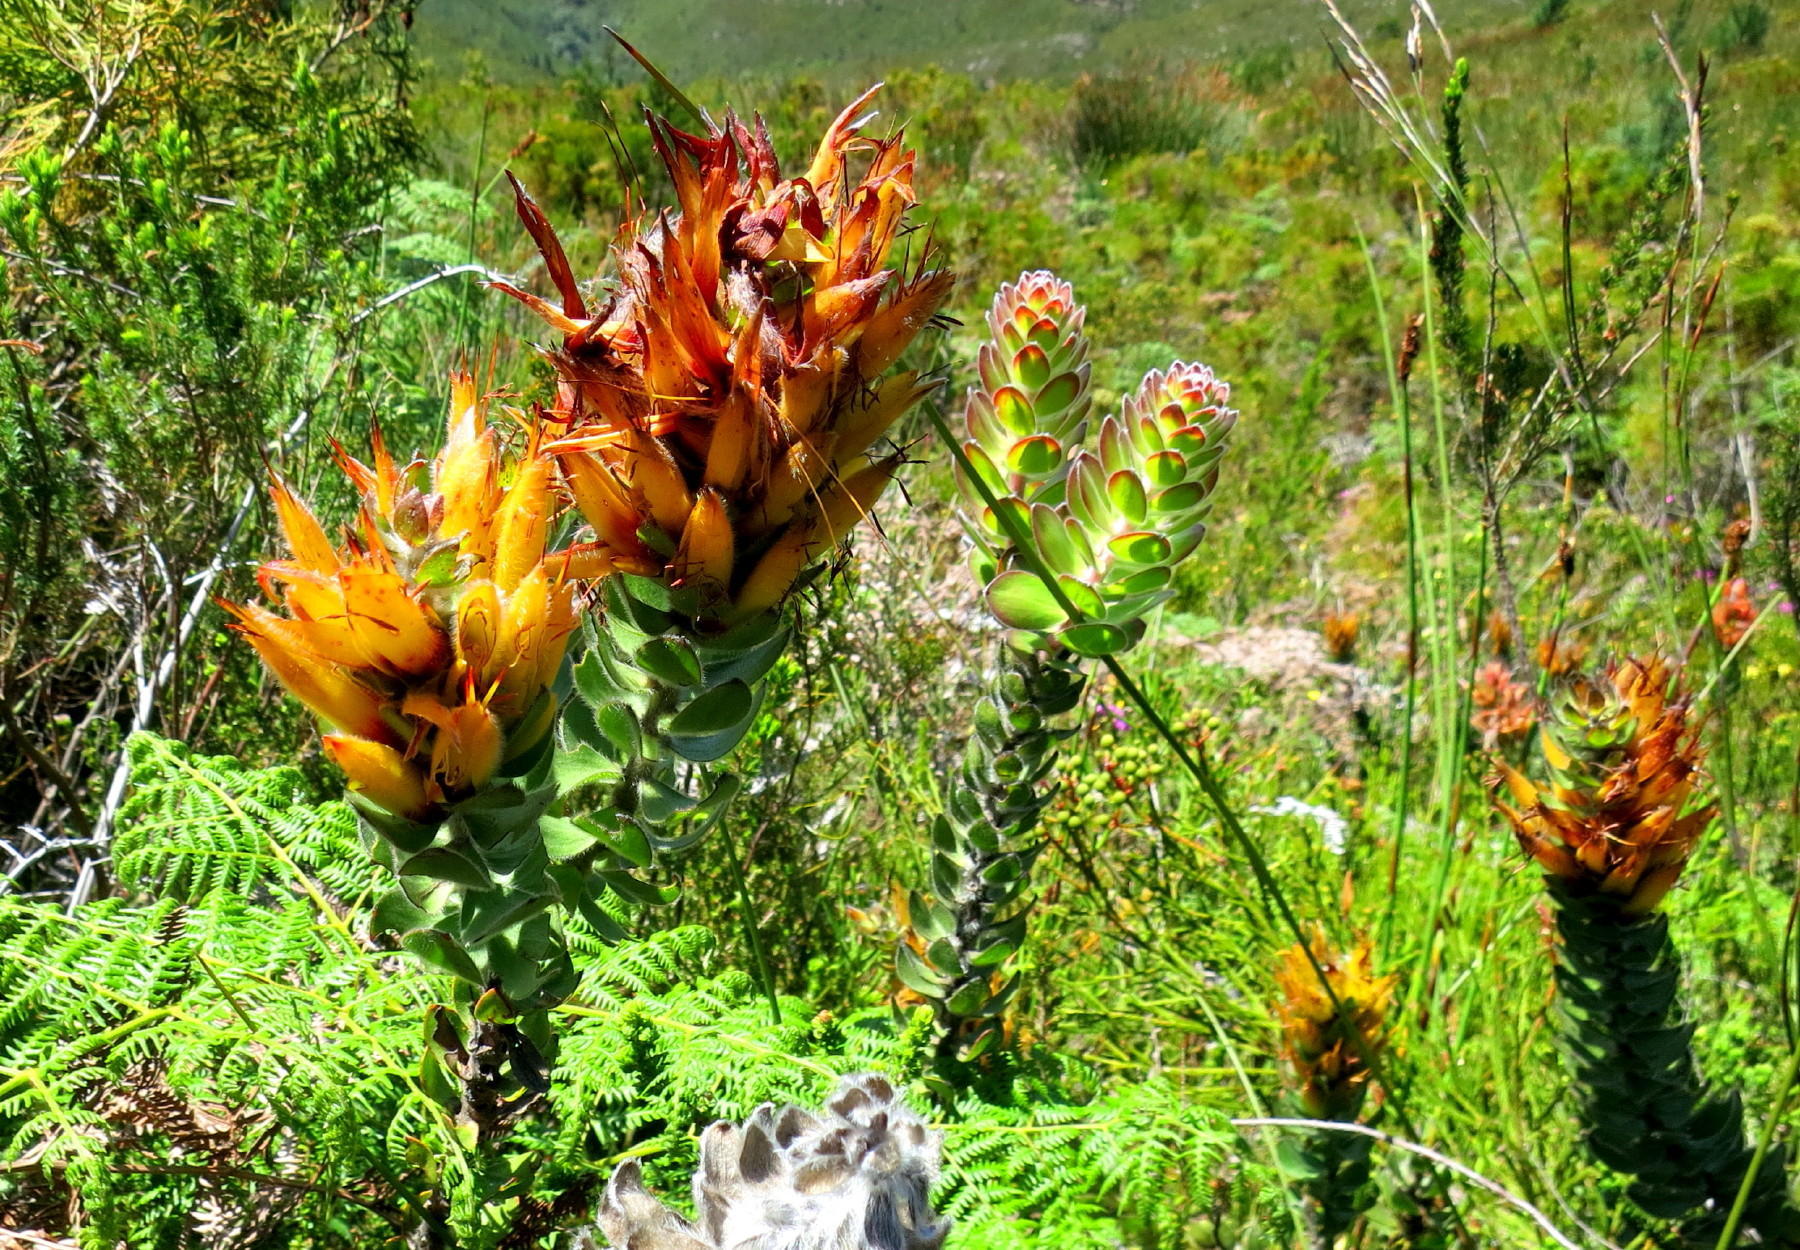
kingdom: Plantae
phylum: Tracheophyta
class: Magnoliopsida
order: Proteales
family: Proteaceae
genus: Mimetes
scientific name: Mimetes pauciflora
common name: Three-flowered pagoda
